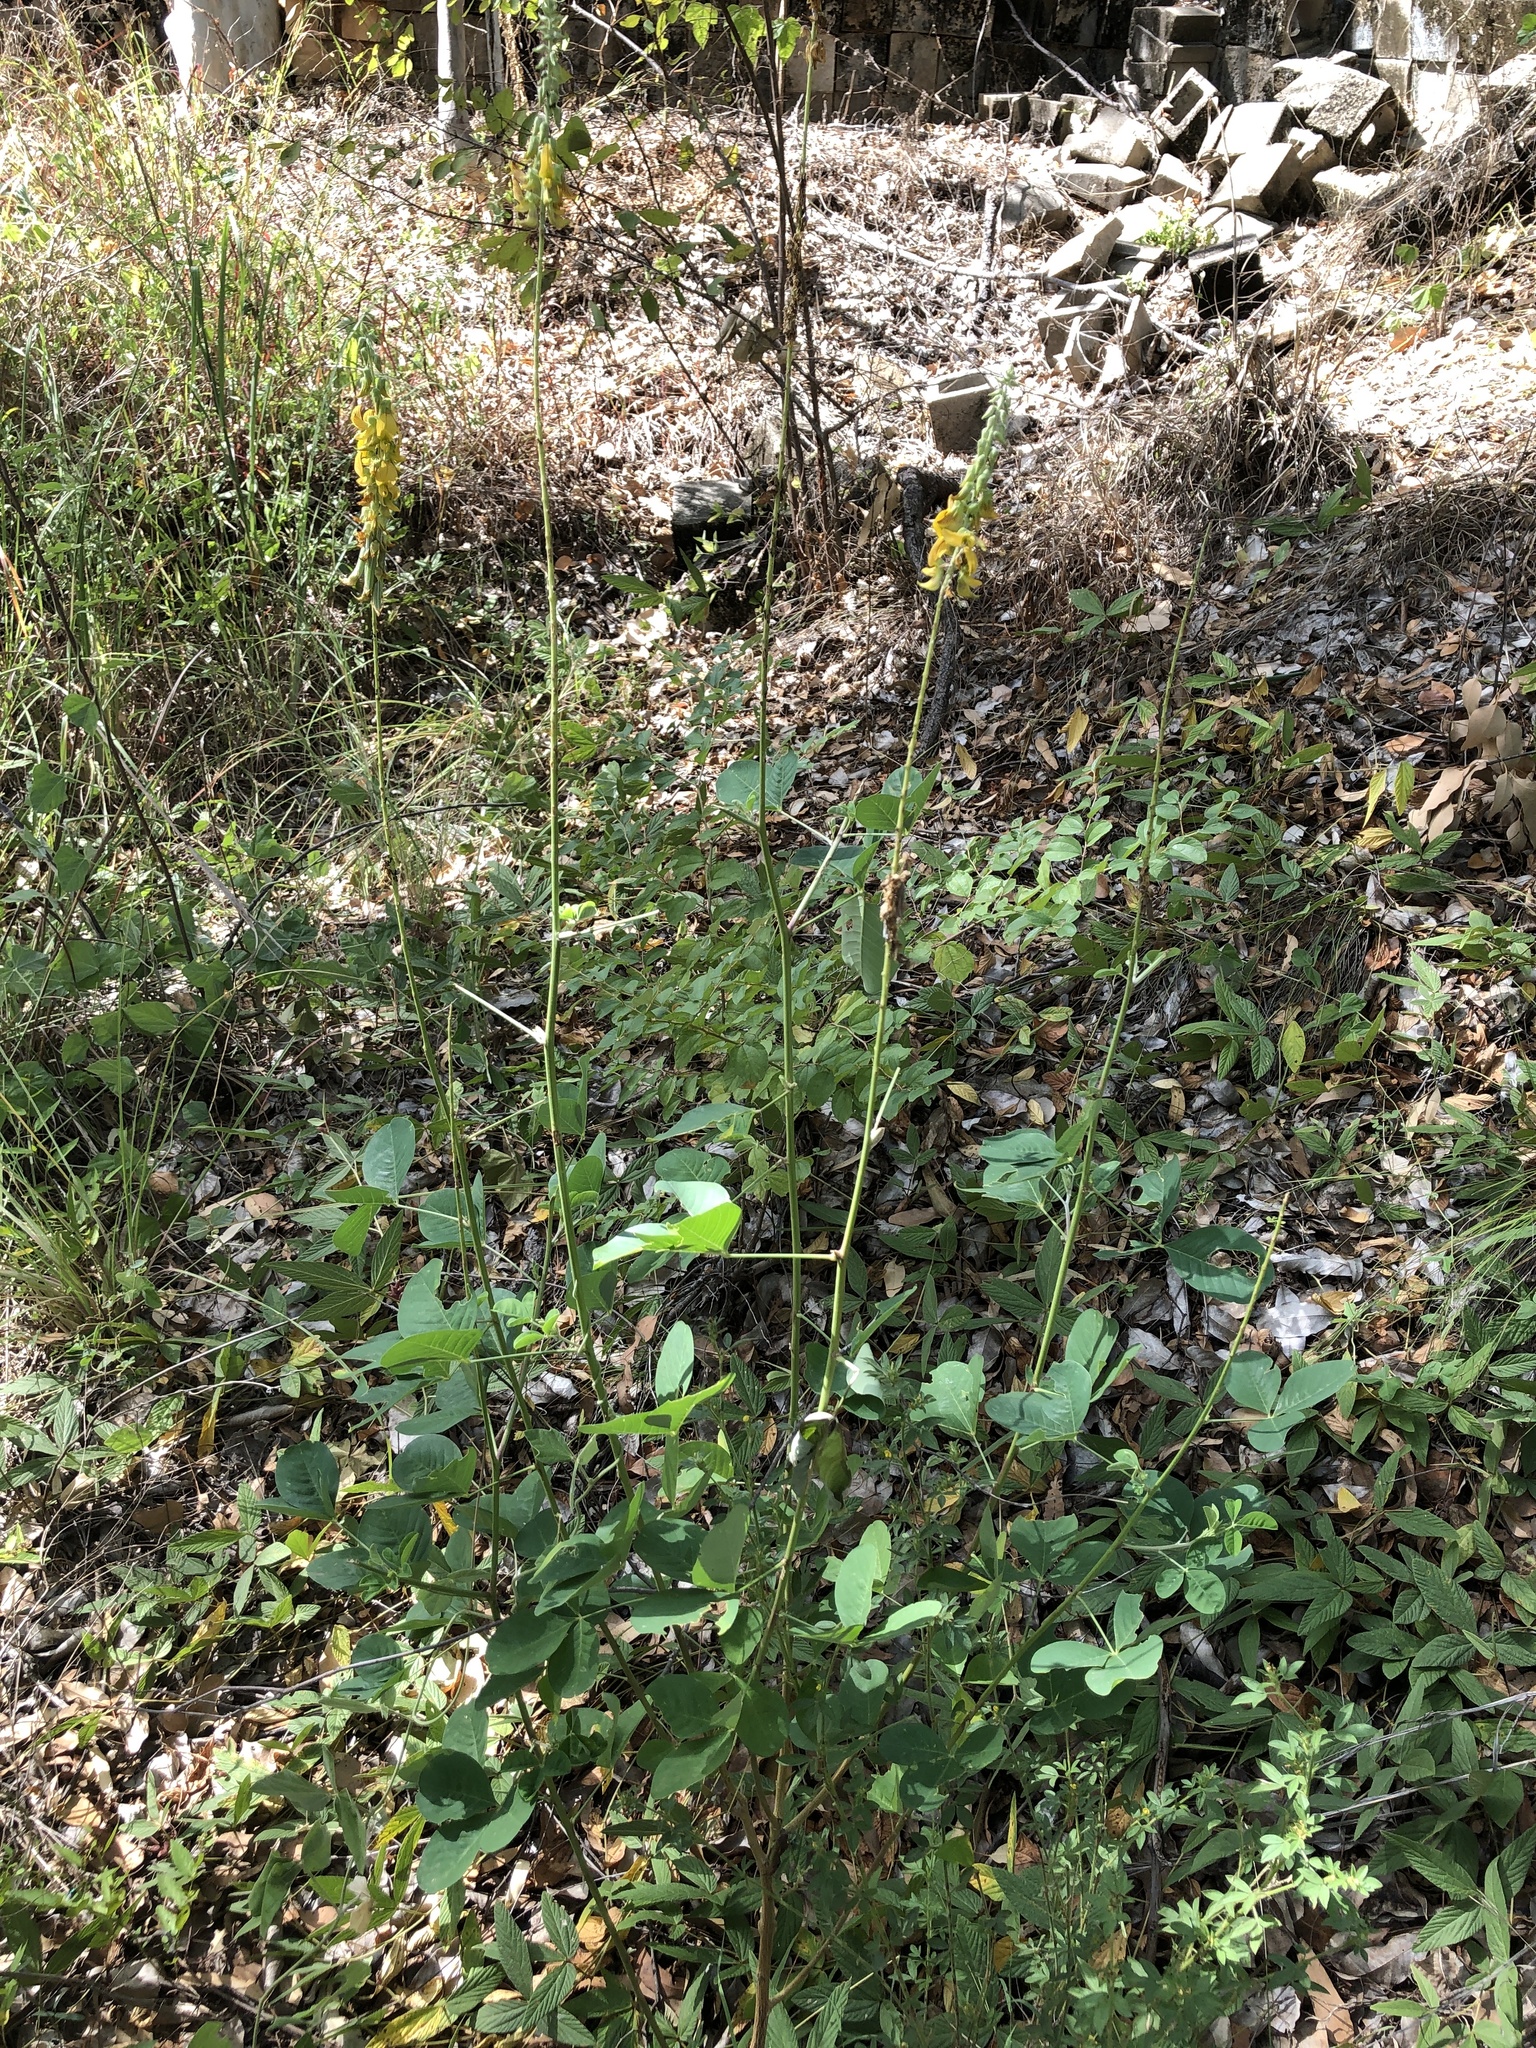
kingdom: Plantae
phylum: Tracheophyta
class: Magnoliopsida
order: Fabales
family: Fabaceae
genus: Crotalaria
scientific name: Crotalaria pallida
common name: Smooth rattlebox
